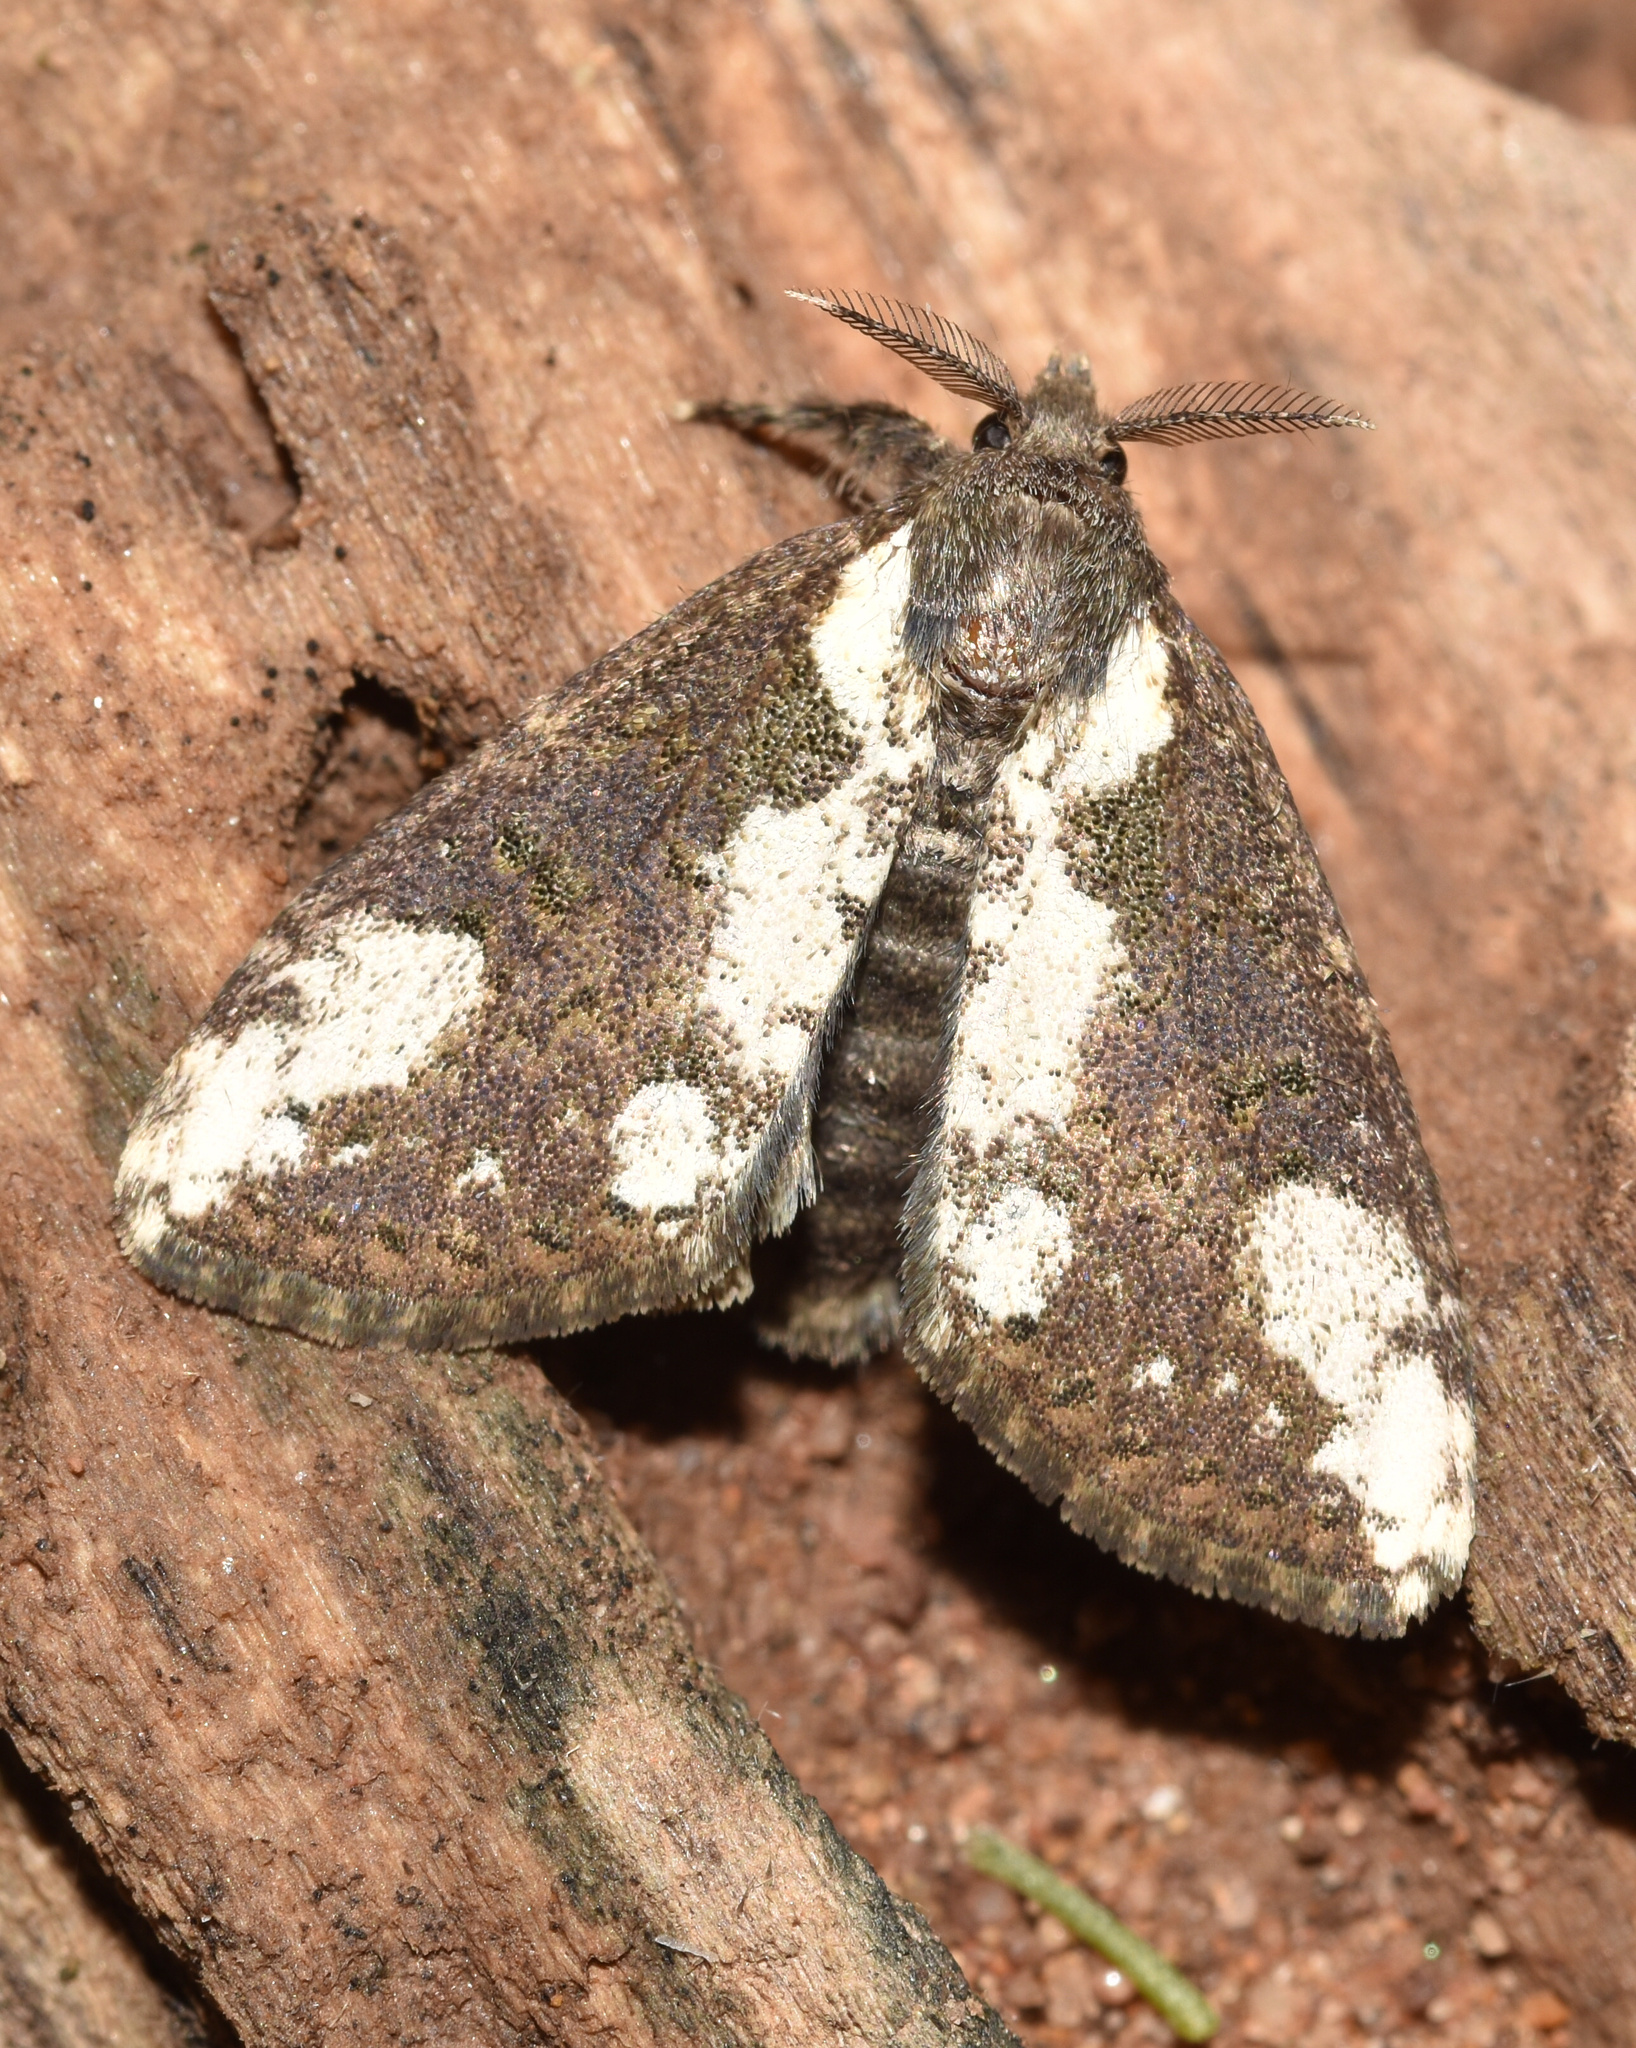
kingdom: Animalia
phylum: Arthropoda
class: Insecta
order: Lepidoptera
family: Erebidae
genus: Dasychira
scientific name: Dasychira batoides
